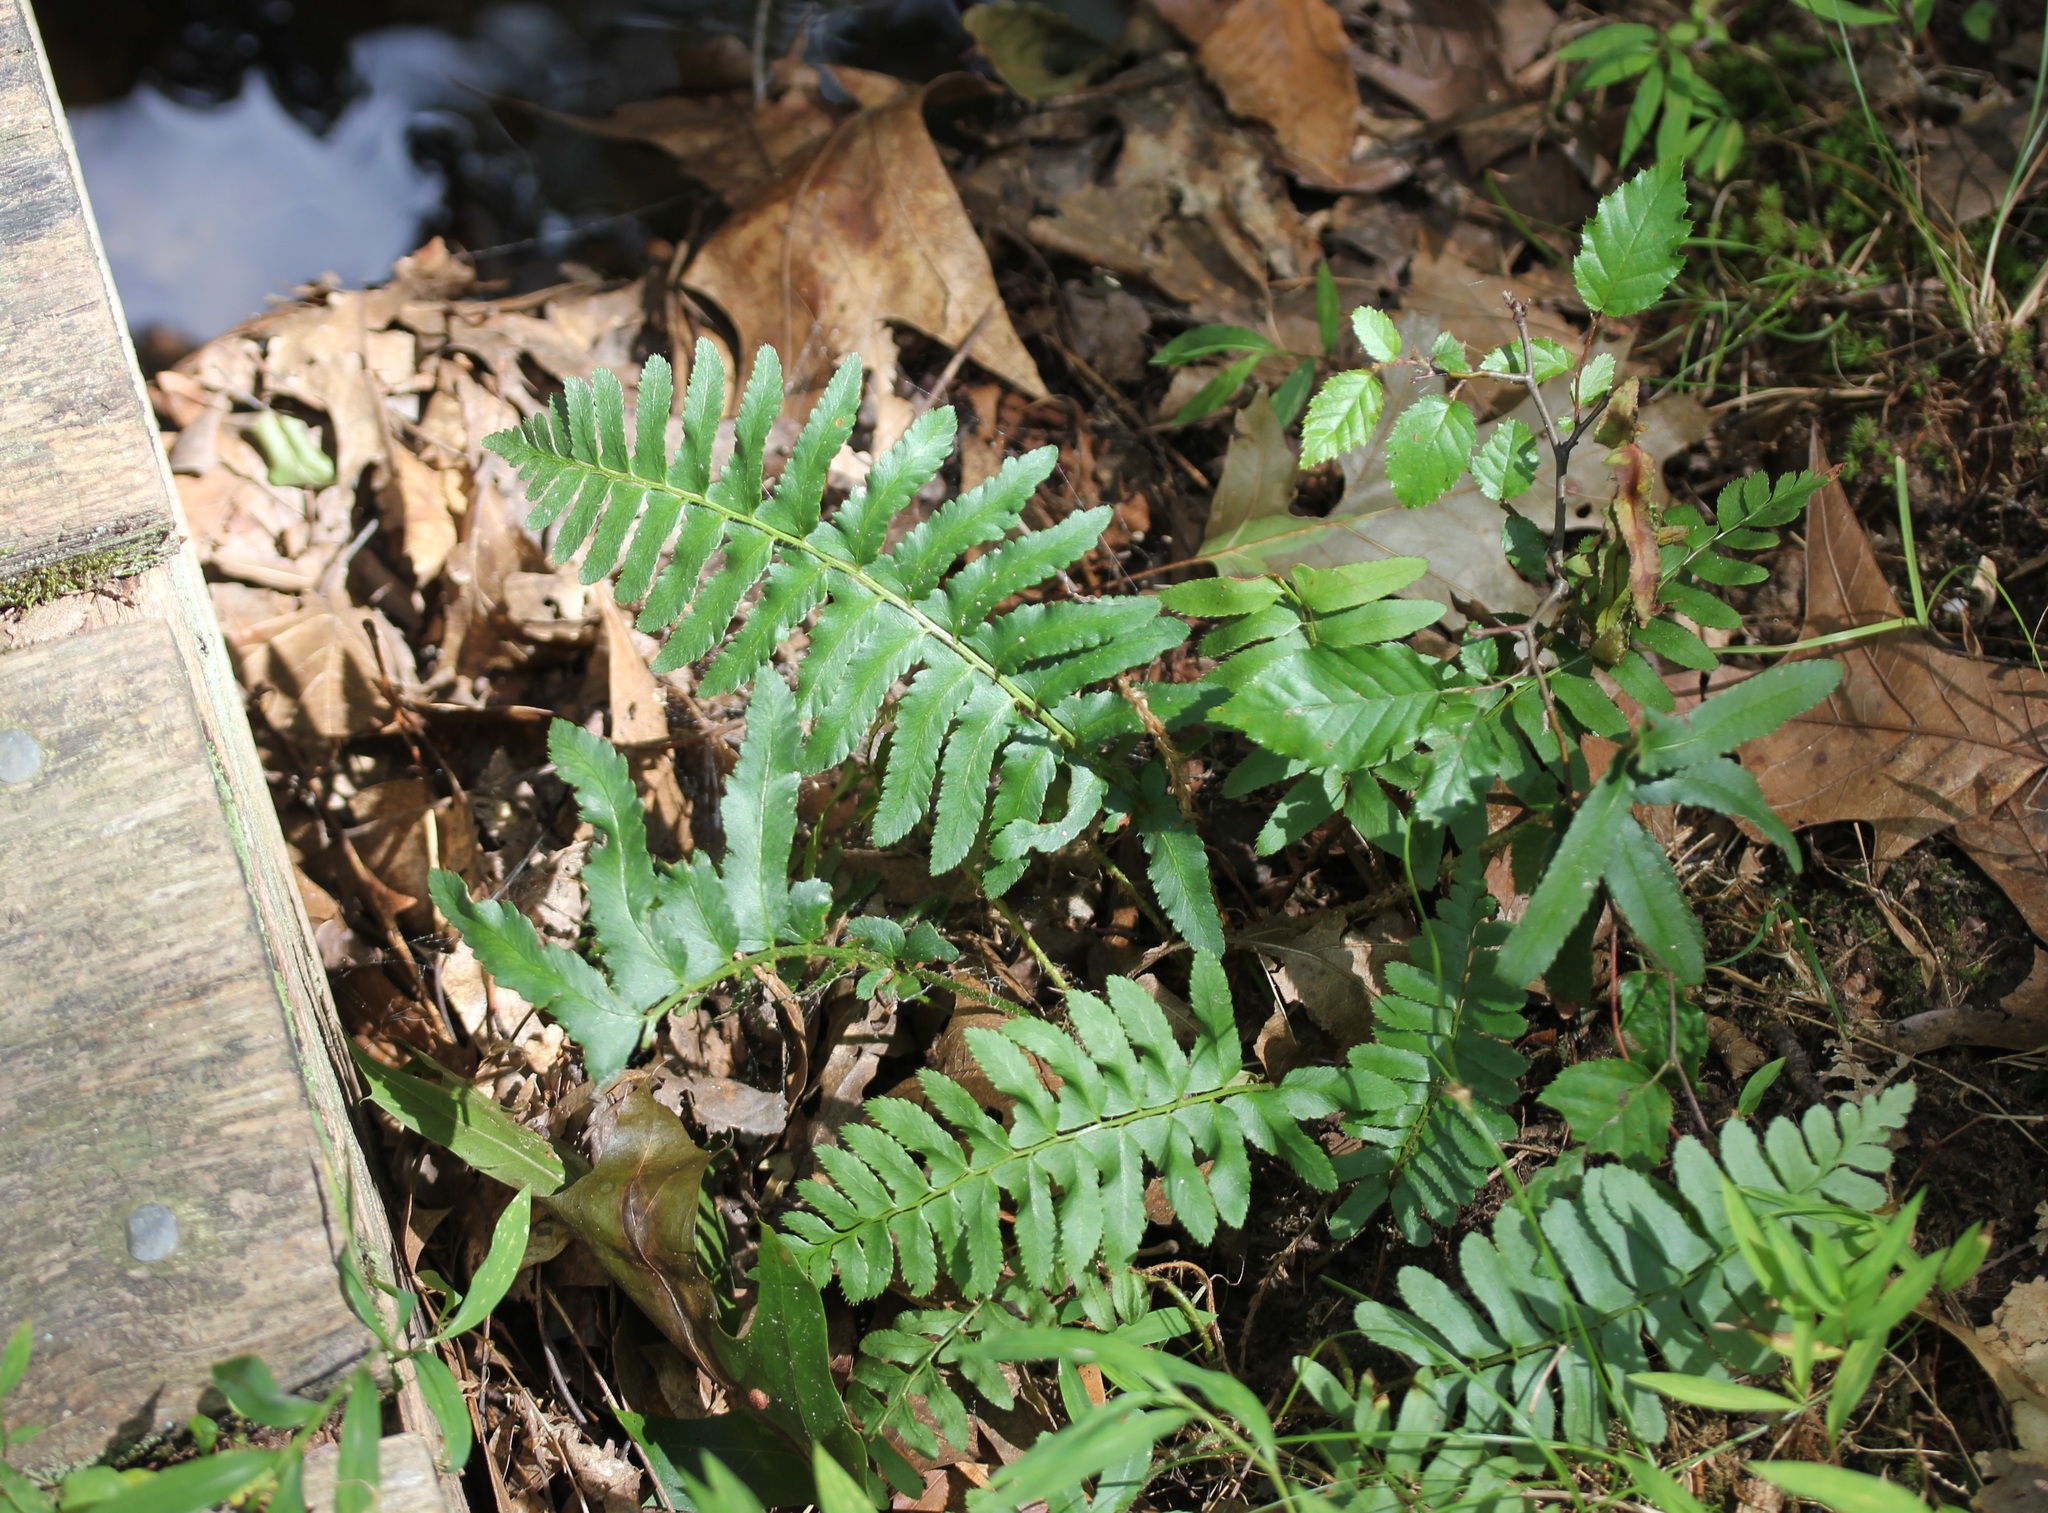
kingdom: Plantae
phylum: Tracheophyta
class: Polypodiopsida
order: Polypodiales
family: Dryopteridaceae
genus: Polystichum
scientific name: Polystichum acrostichoides
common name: Christmas fern
